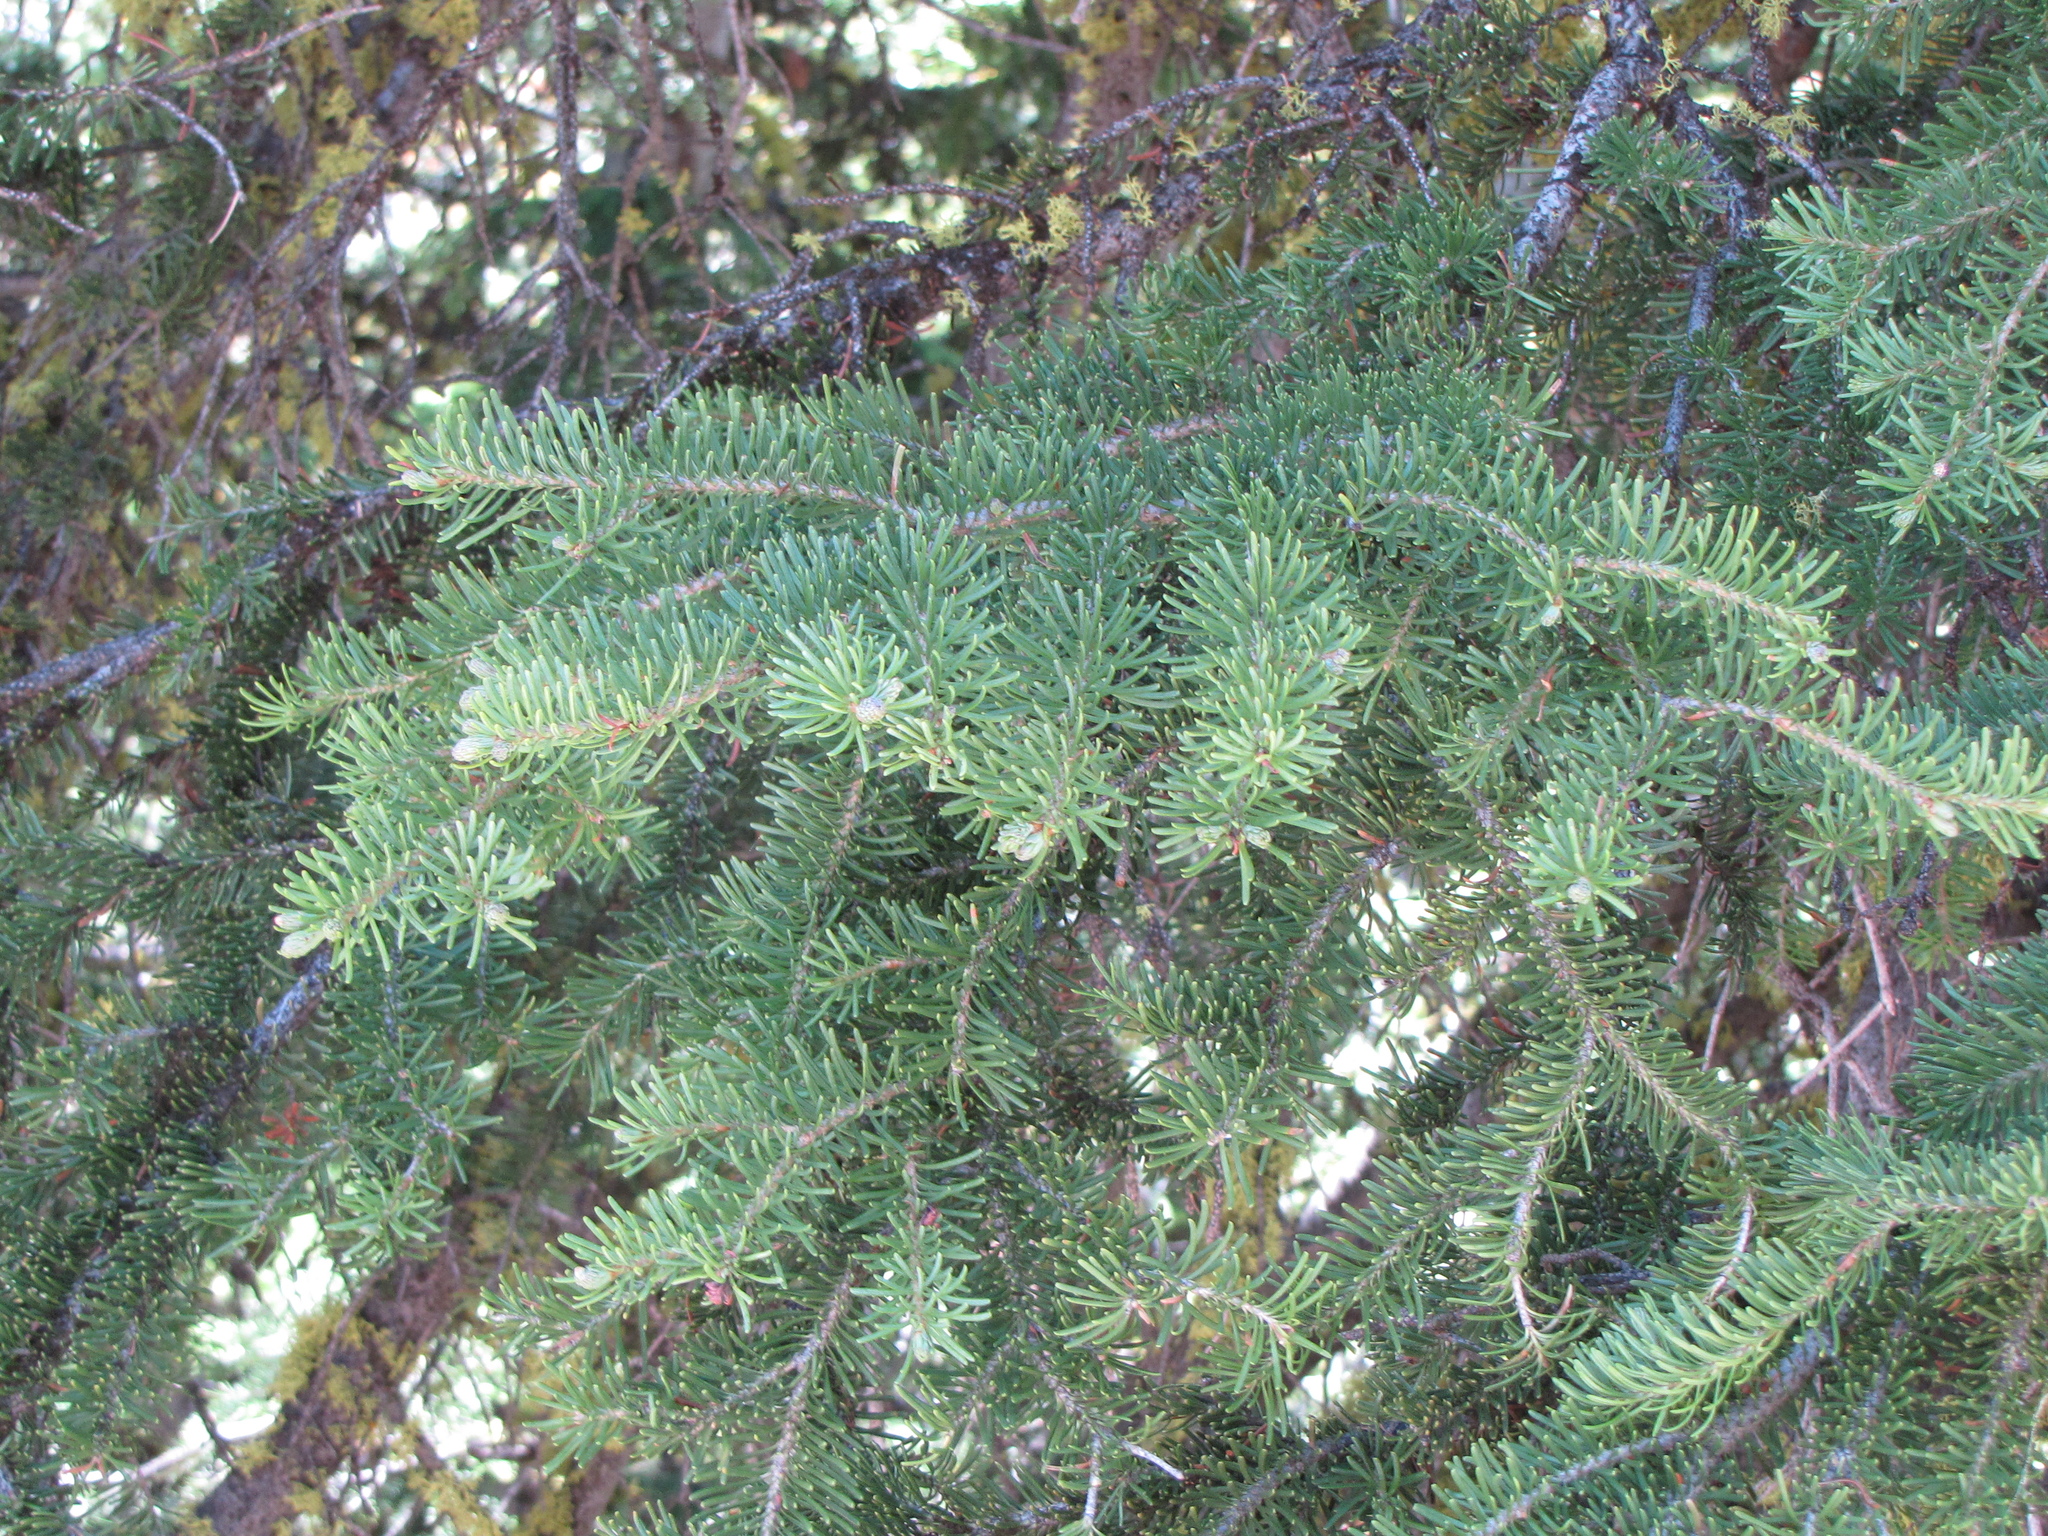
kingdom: Plantae
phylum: Tracheophyta
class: Pinopsida
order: Pinales
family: Pinaceae
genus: Abies
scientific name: Abies lasiocarpa
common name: Subalpine fir
